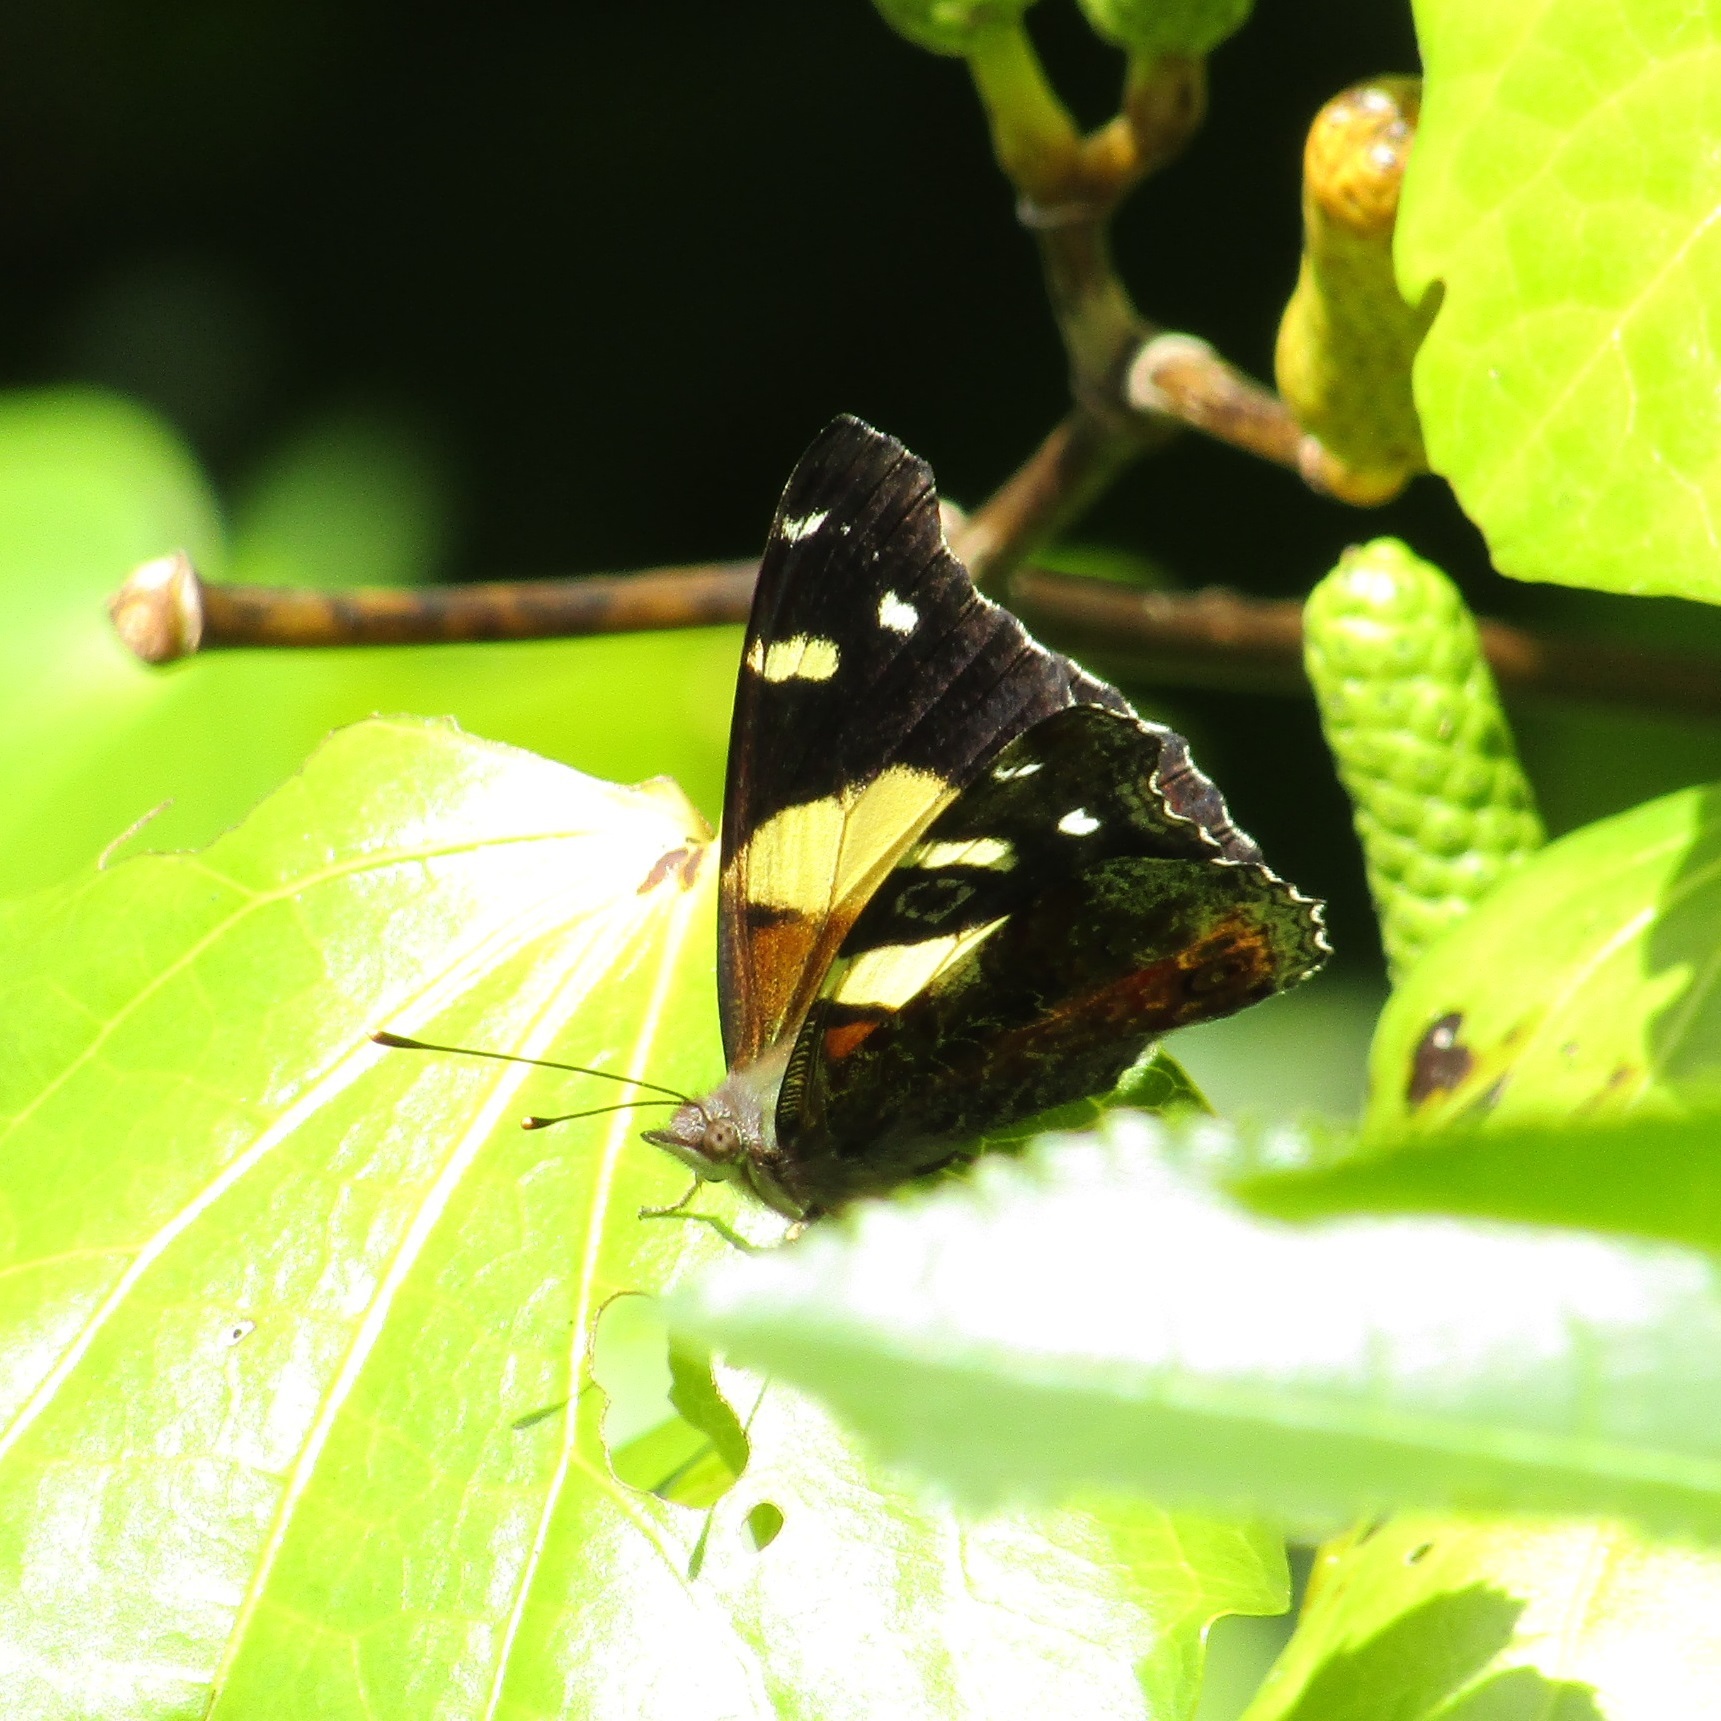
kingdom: Animalia
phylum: Arthropoda
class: Insecta
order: Lepidoptera
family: Nymphalidae
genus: Vanessa
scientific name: Vanessa itea
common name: Yellow admiral
